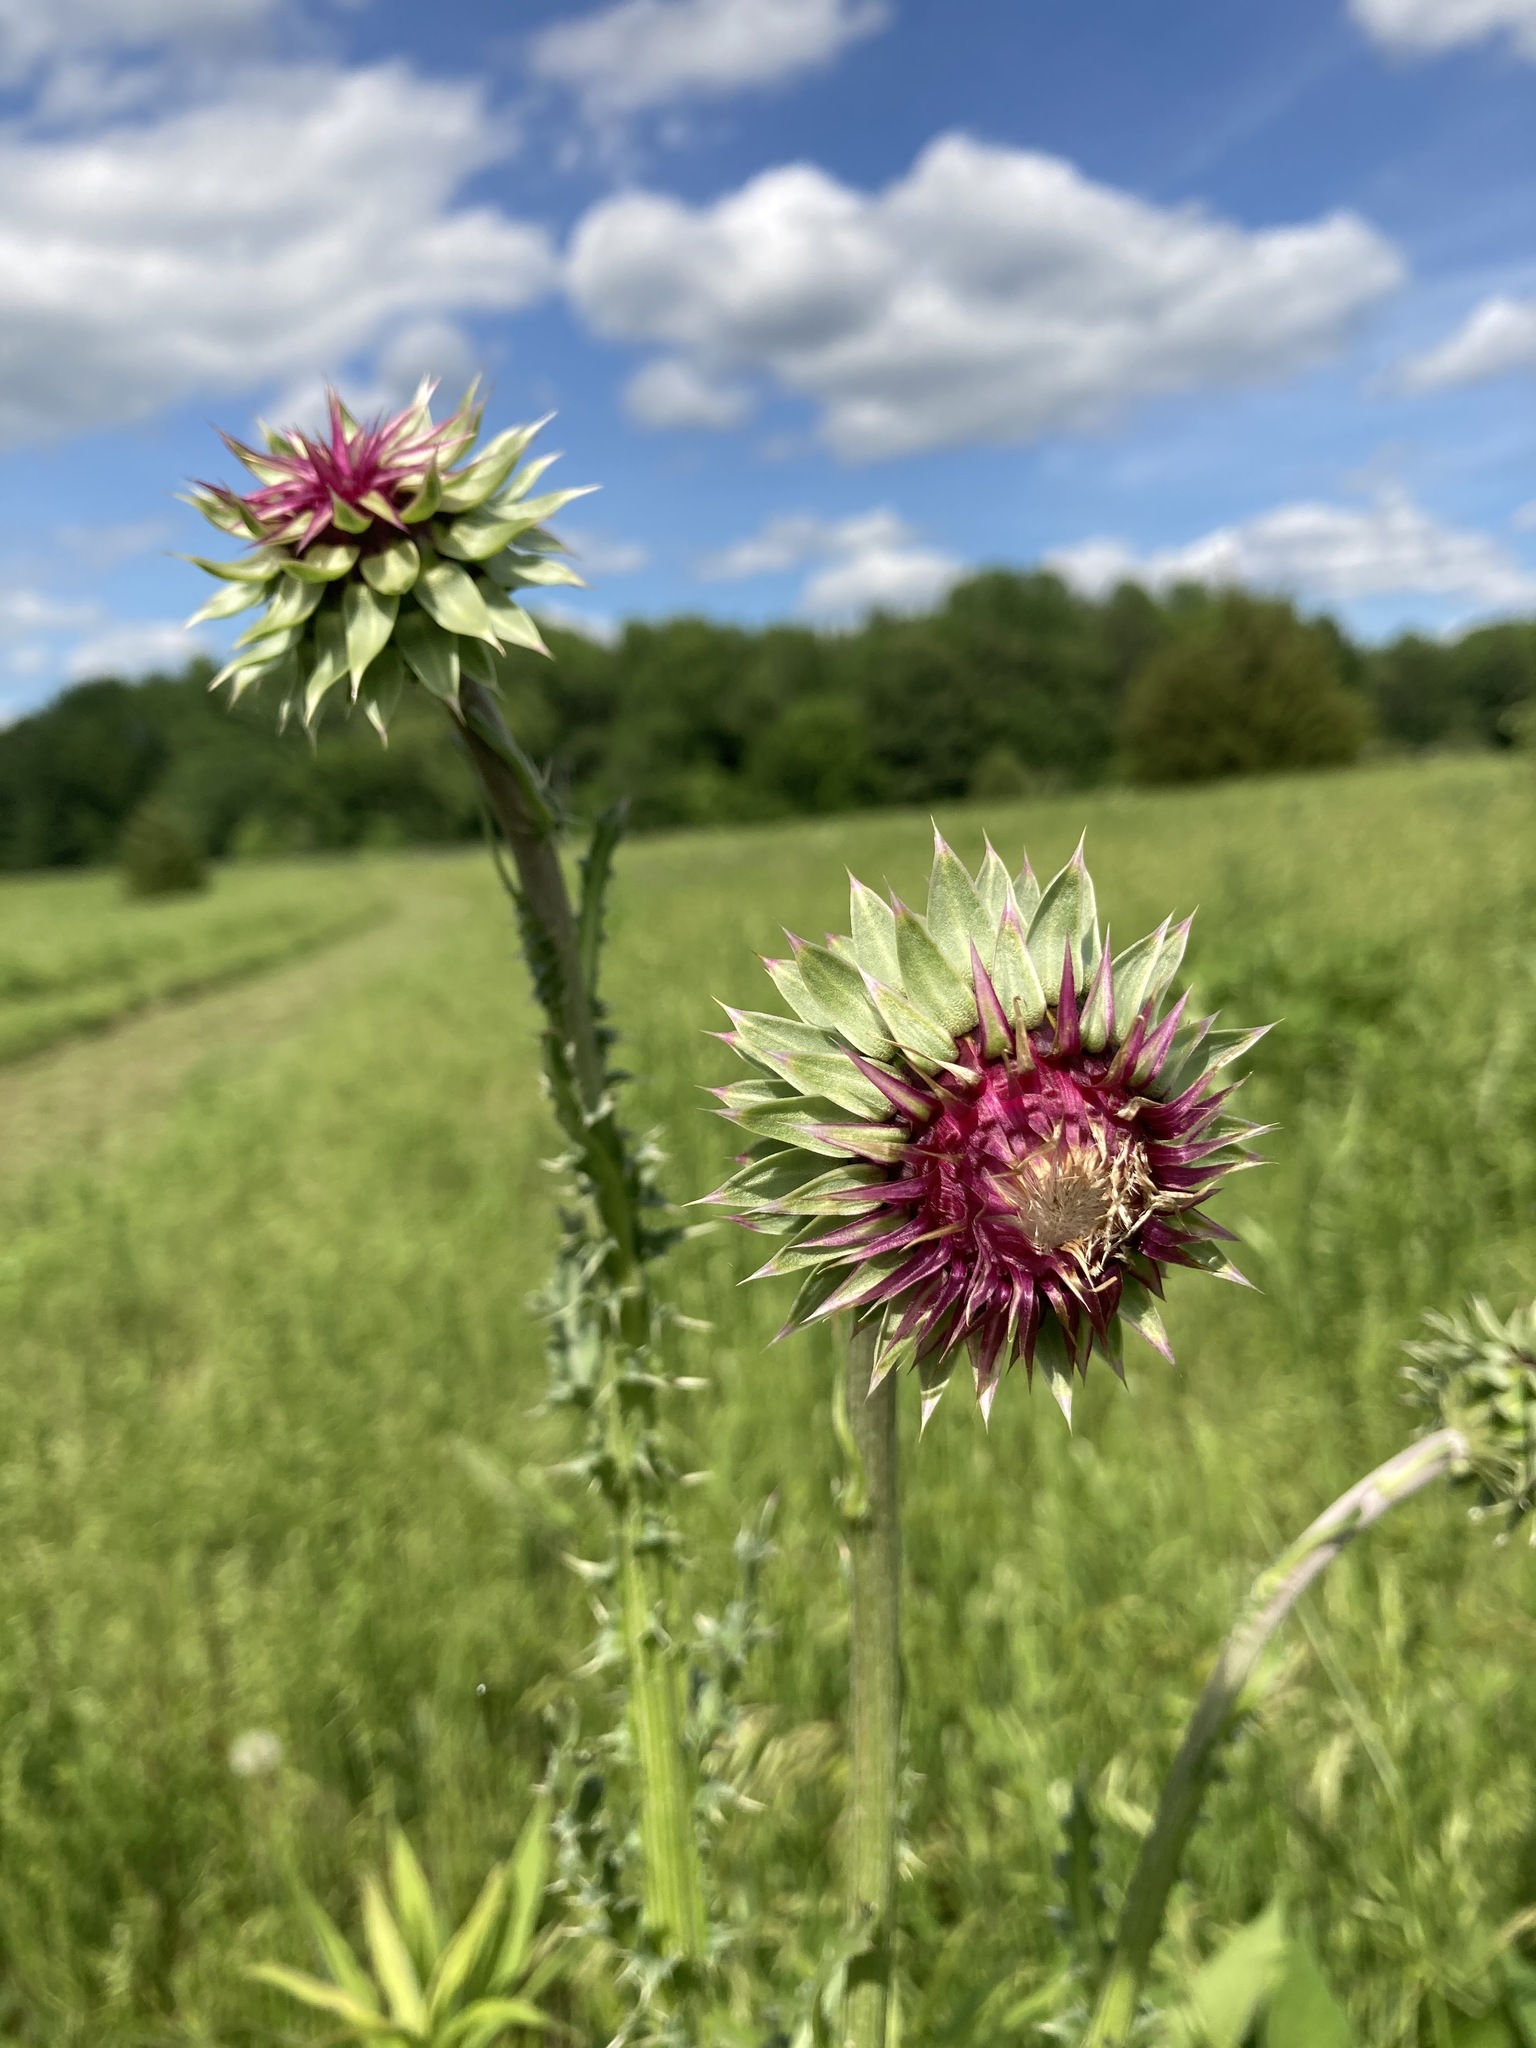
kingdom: Plantae
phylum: Tracheophyta
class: Magnoliopsida
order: Asterales
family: Asteraceae
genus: Carduus
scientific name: Carduus nutans
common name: Musk thistle
